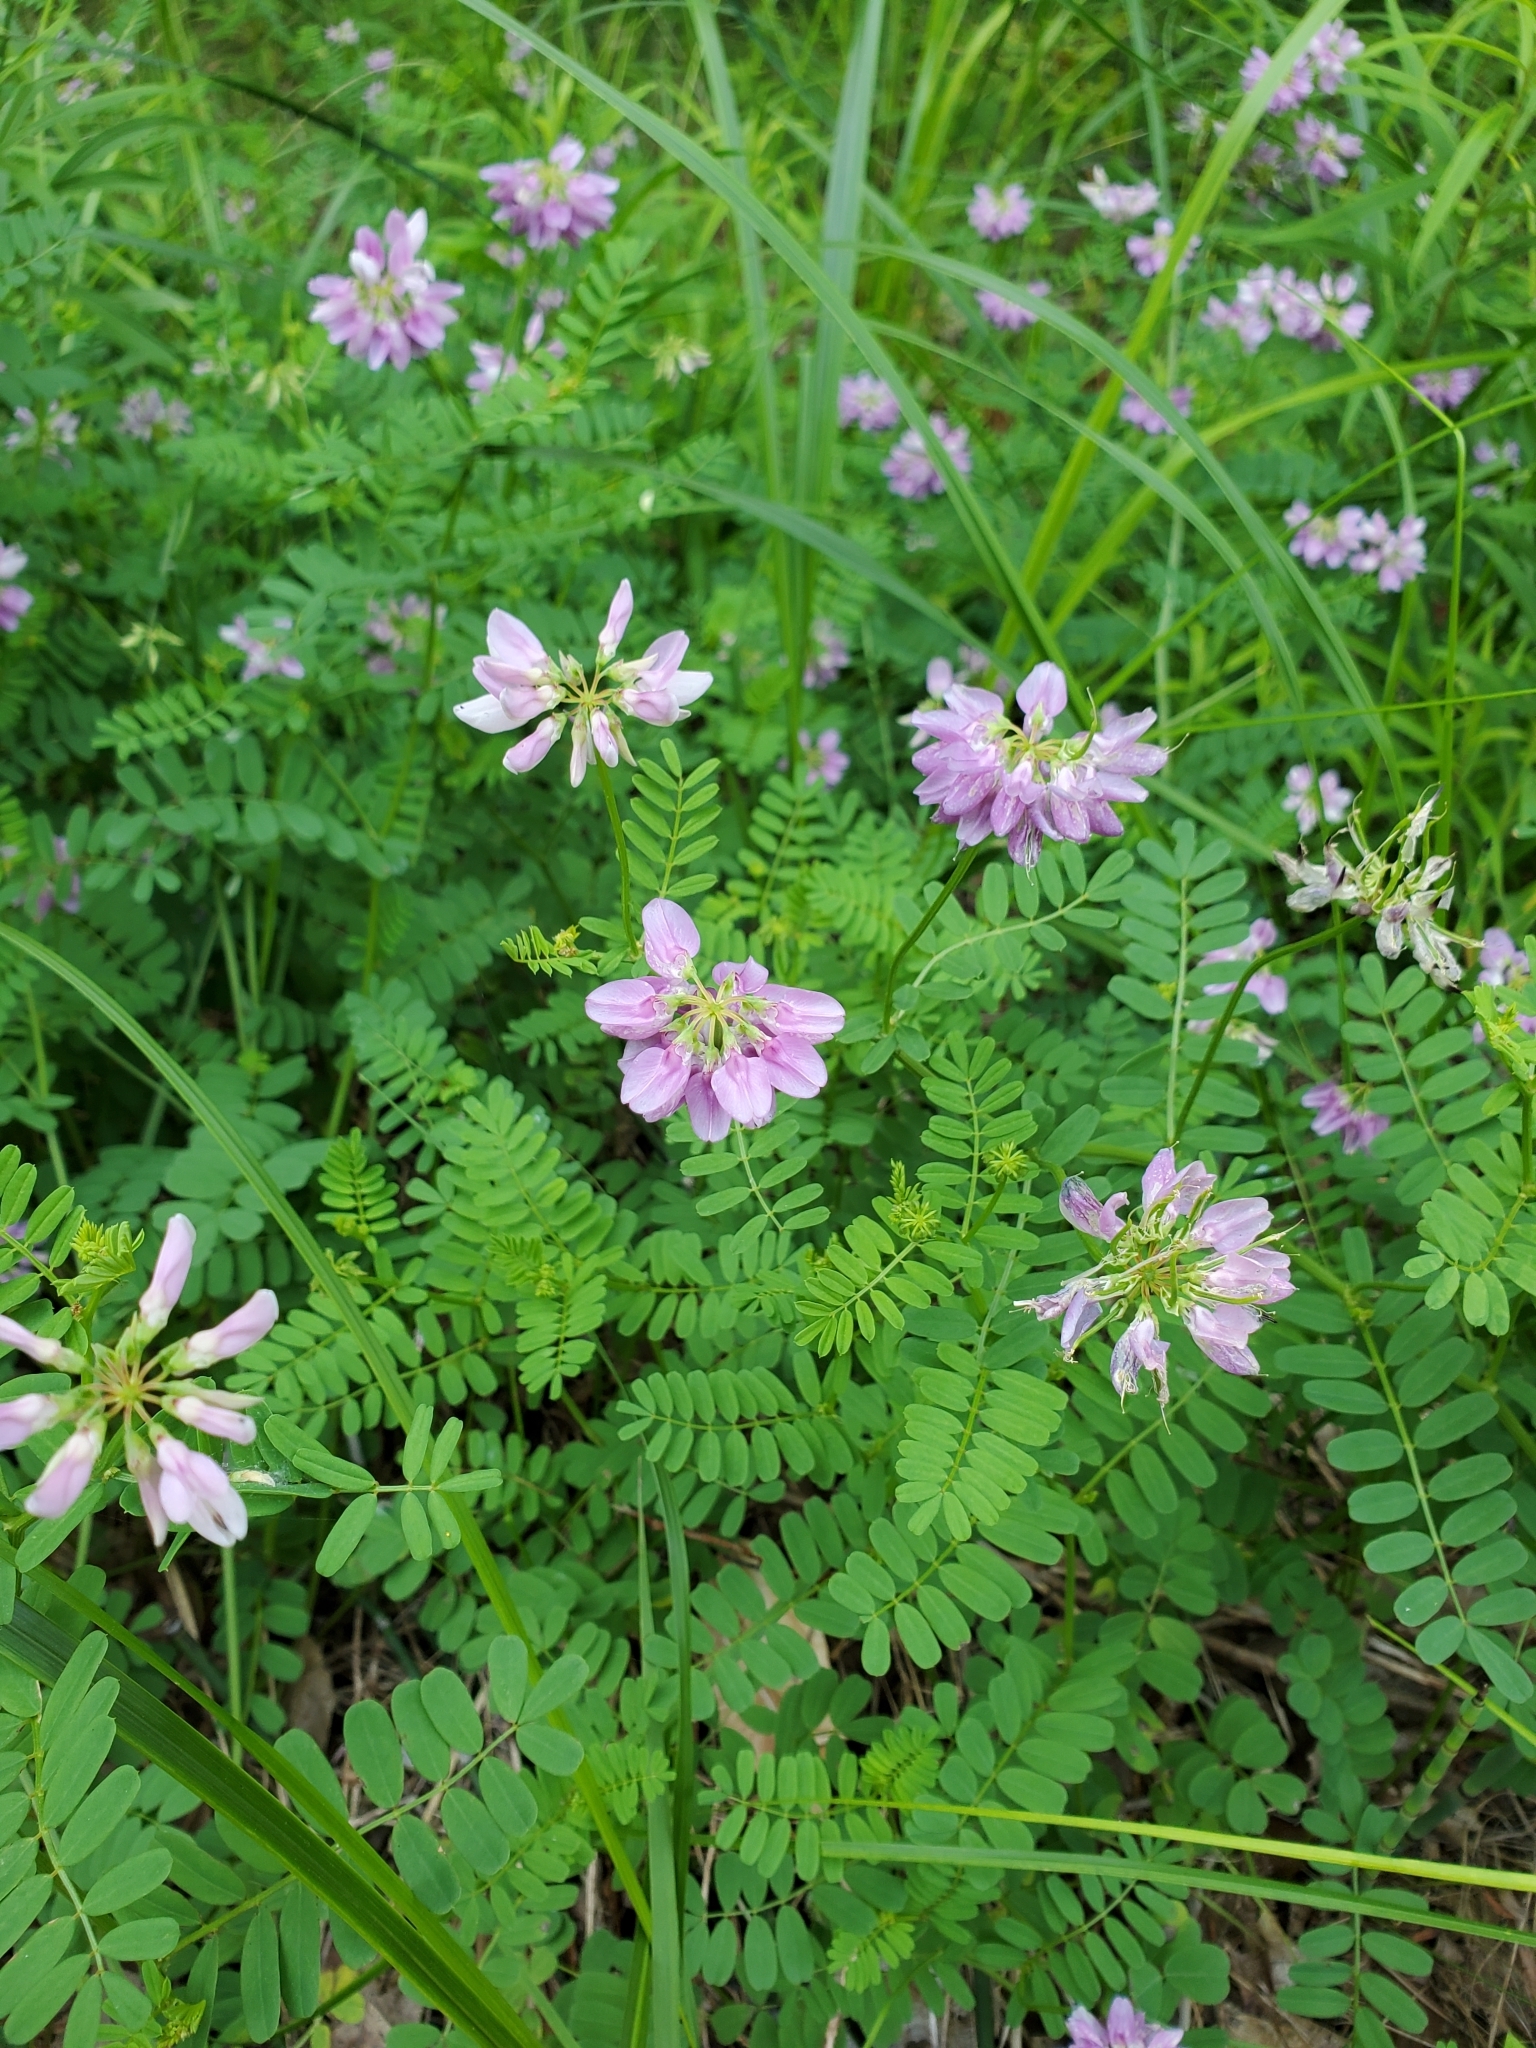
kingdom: Plantae
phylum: Tracheophyta
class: Magnoliopsida
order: Fabales
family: Fabaceae
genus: Coronilla
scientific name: Coronilla varia
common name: Crownvetch
